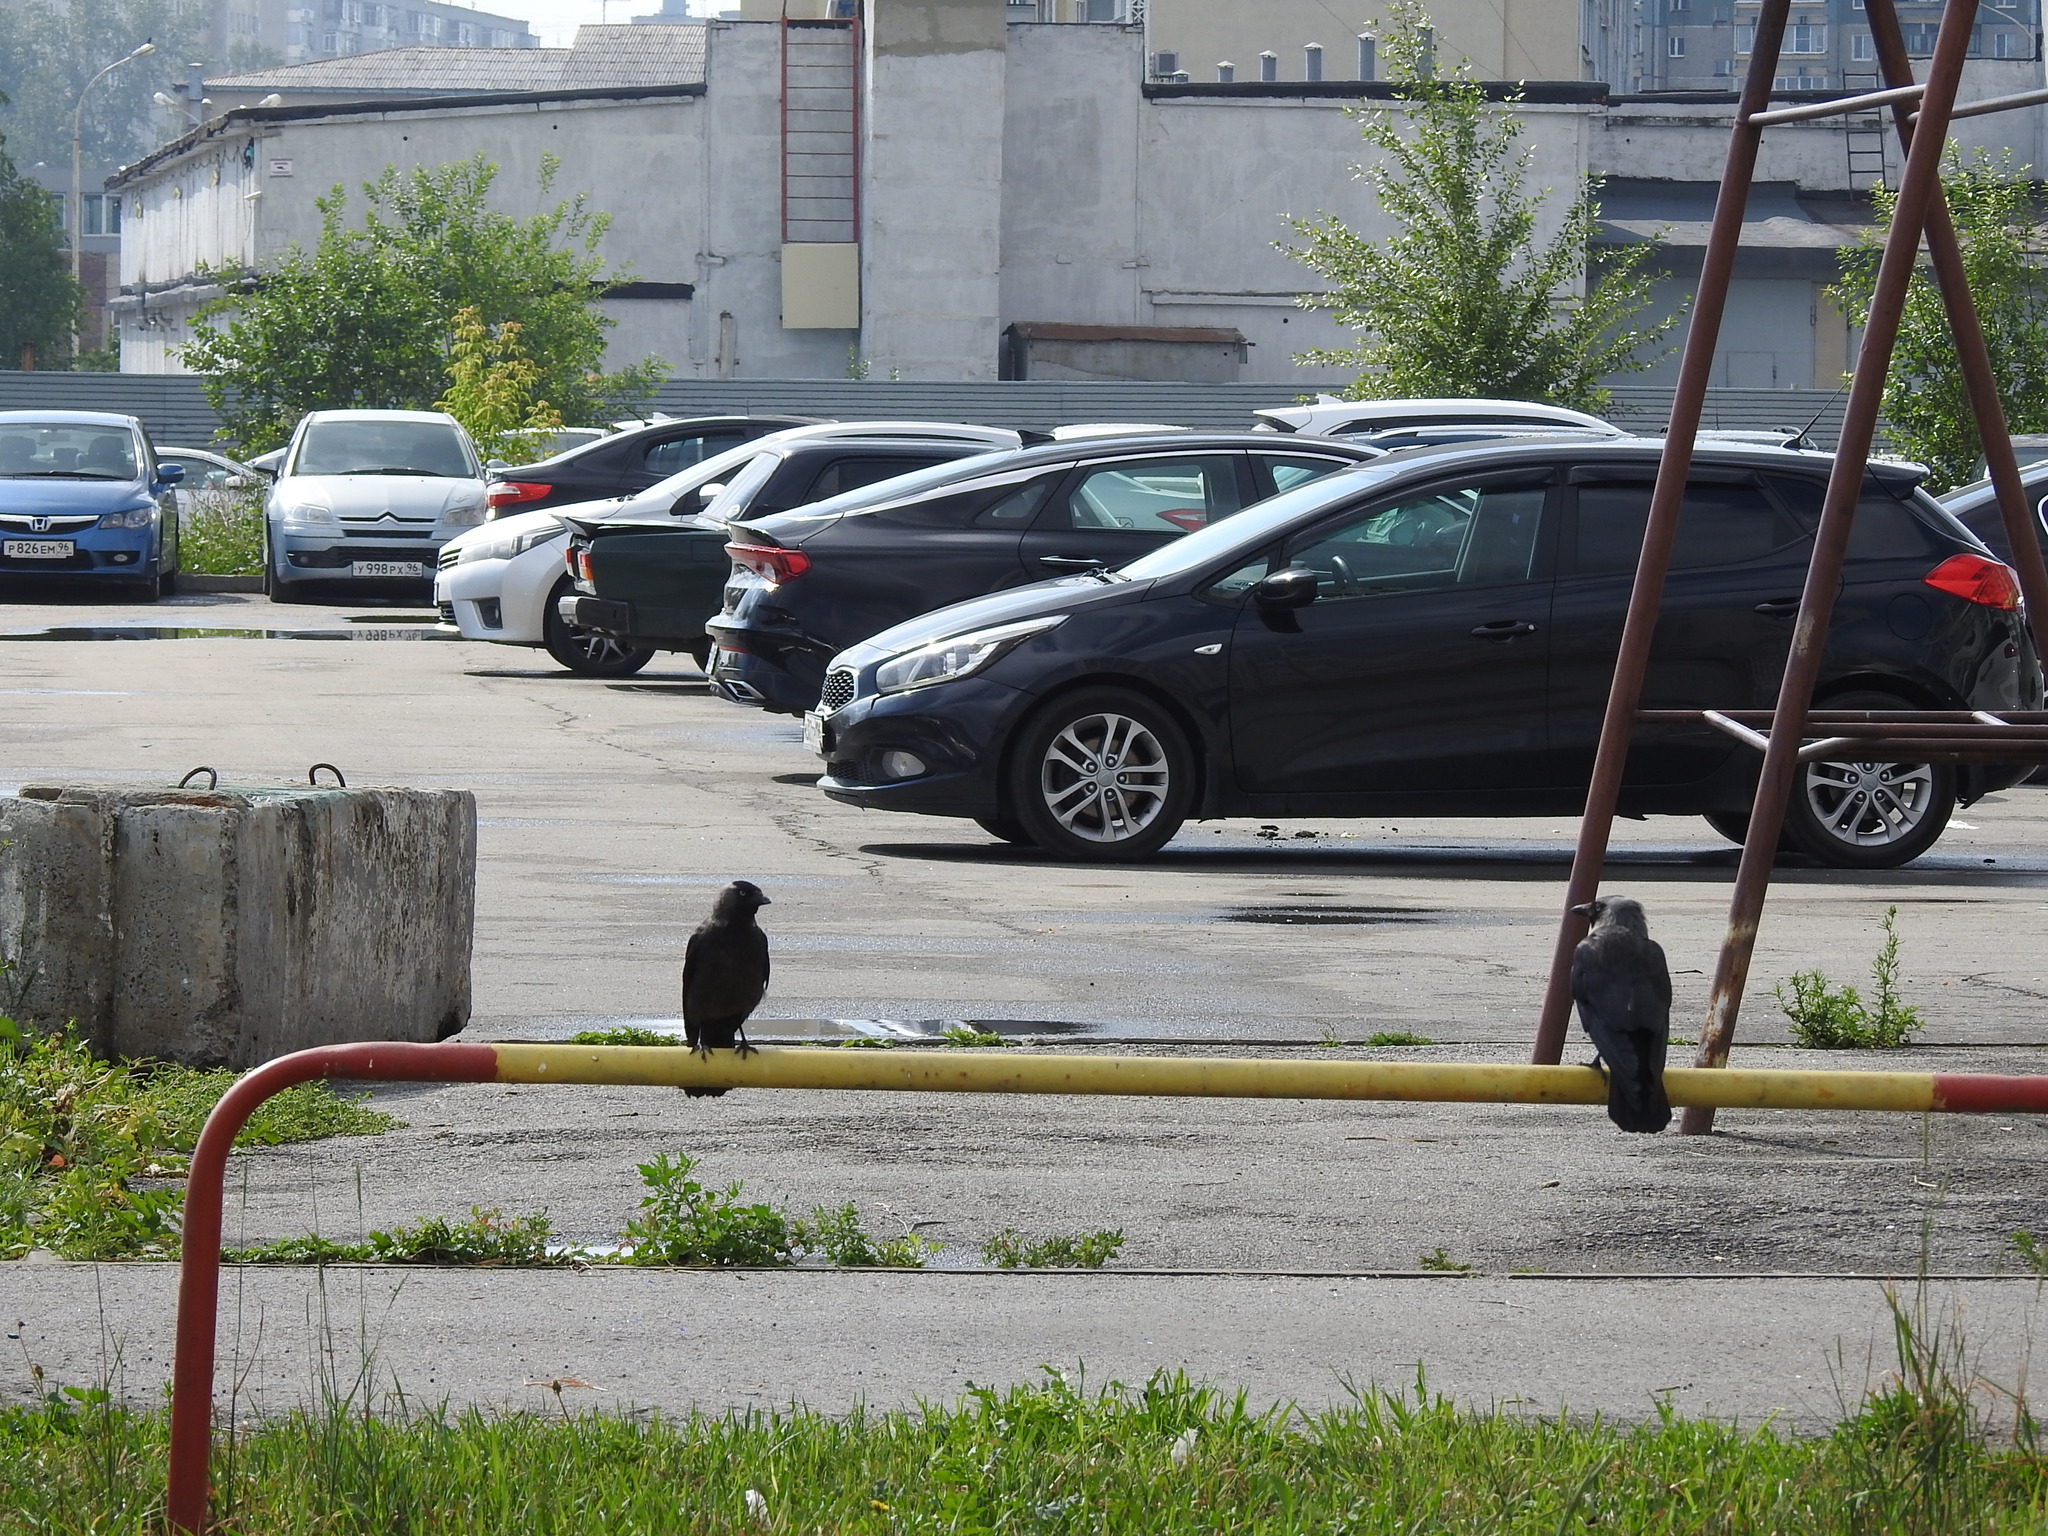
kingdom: Animalia
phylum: Chordata
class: Aves
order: Passeriformes
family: Corvidae
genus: Coloeus
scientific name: Coloeus monedula
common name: Western jackdaw
